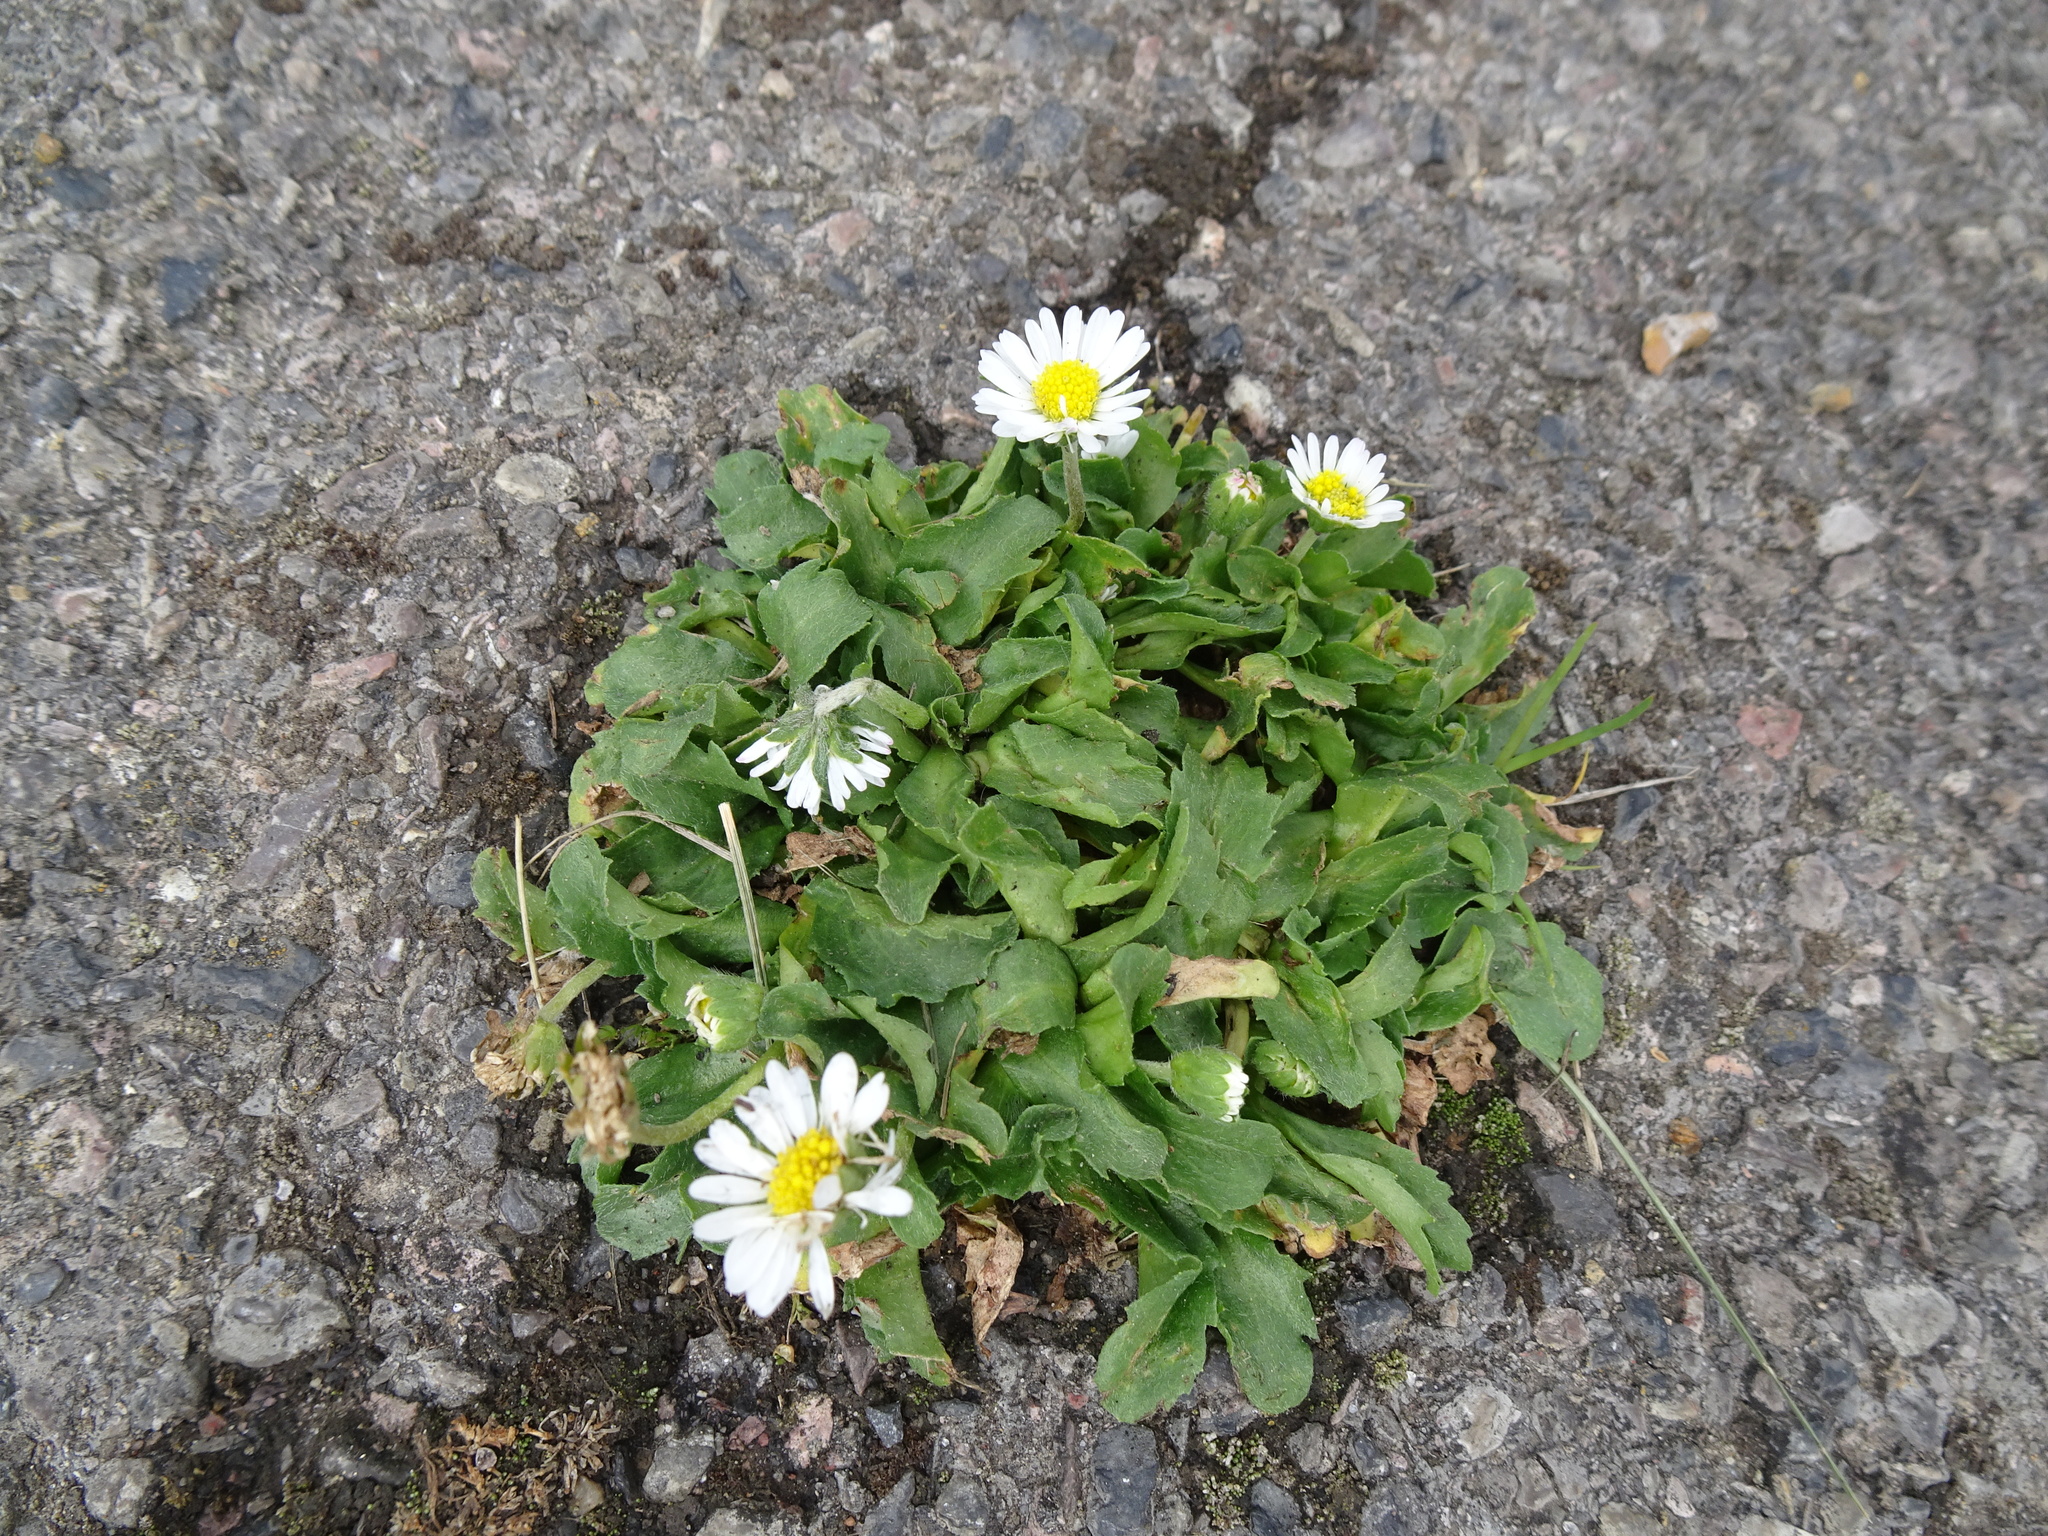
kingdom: Plantae
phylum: Tracheophyta
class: Magnoliopsida
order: Asterales
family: Asteraceae
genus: Bellis
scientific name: Bellis perennis
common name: Lawndaisy
